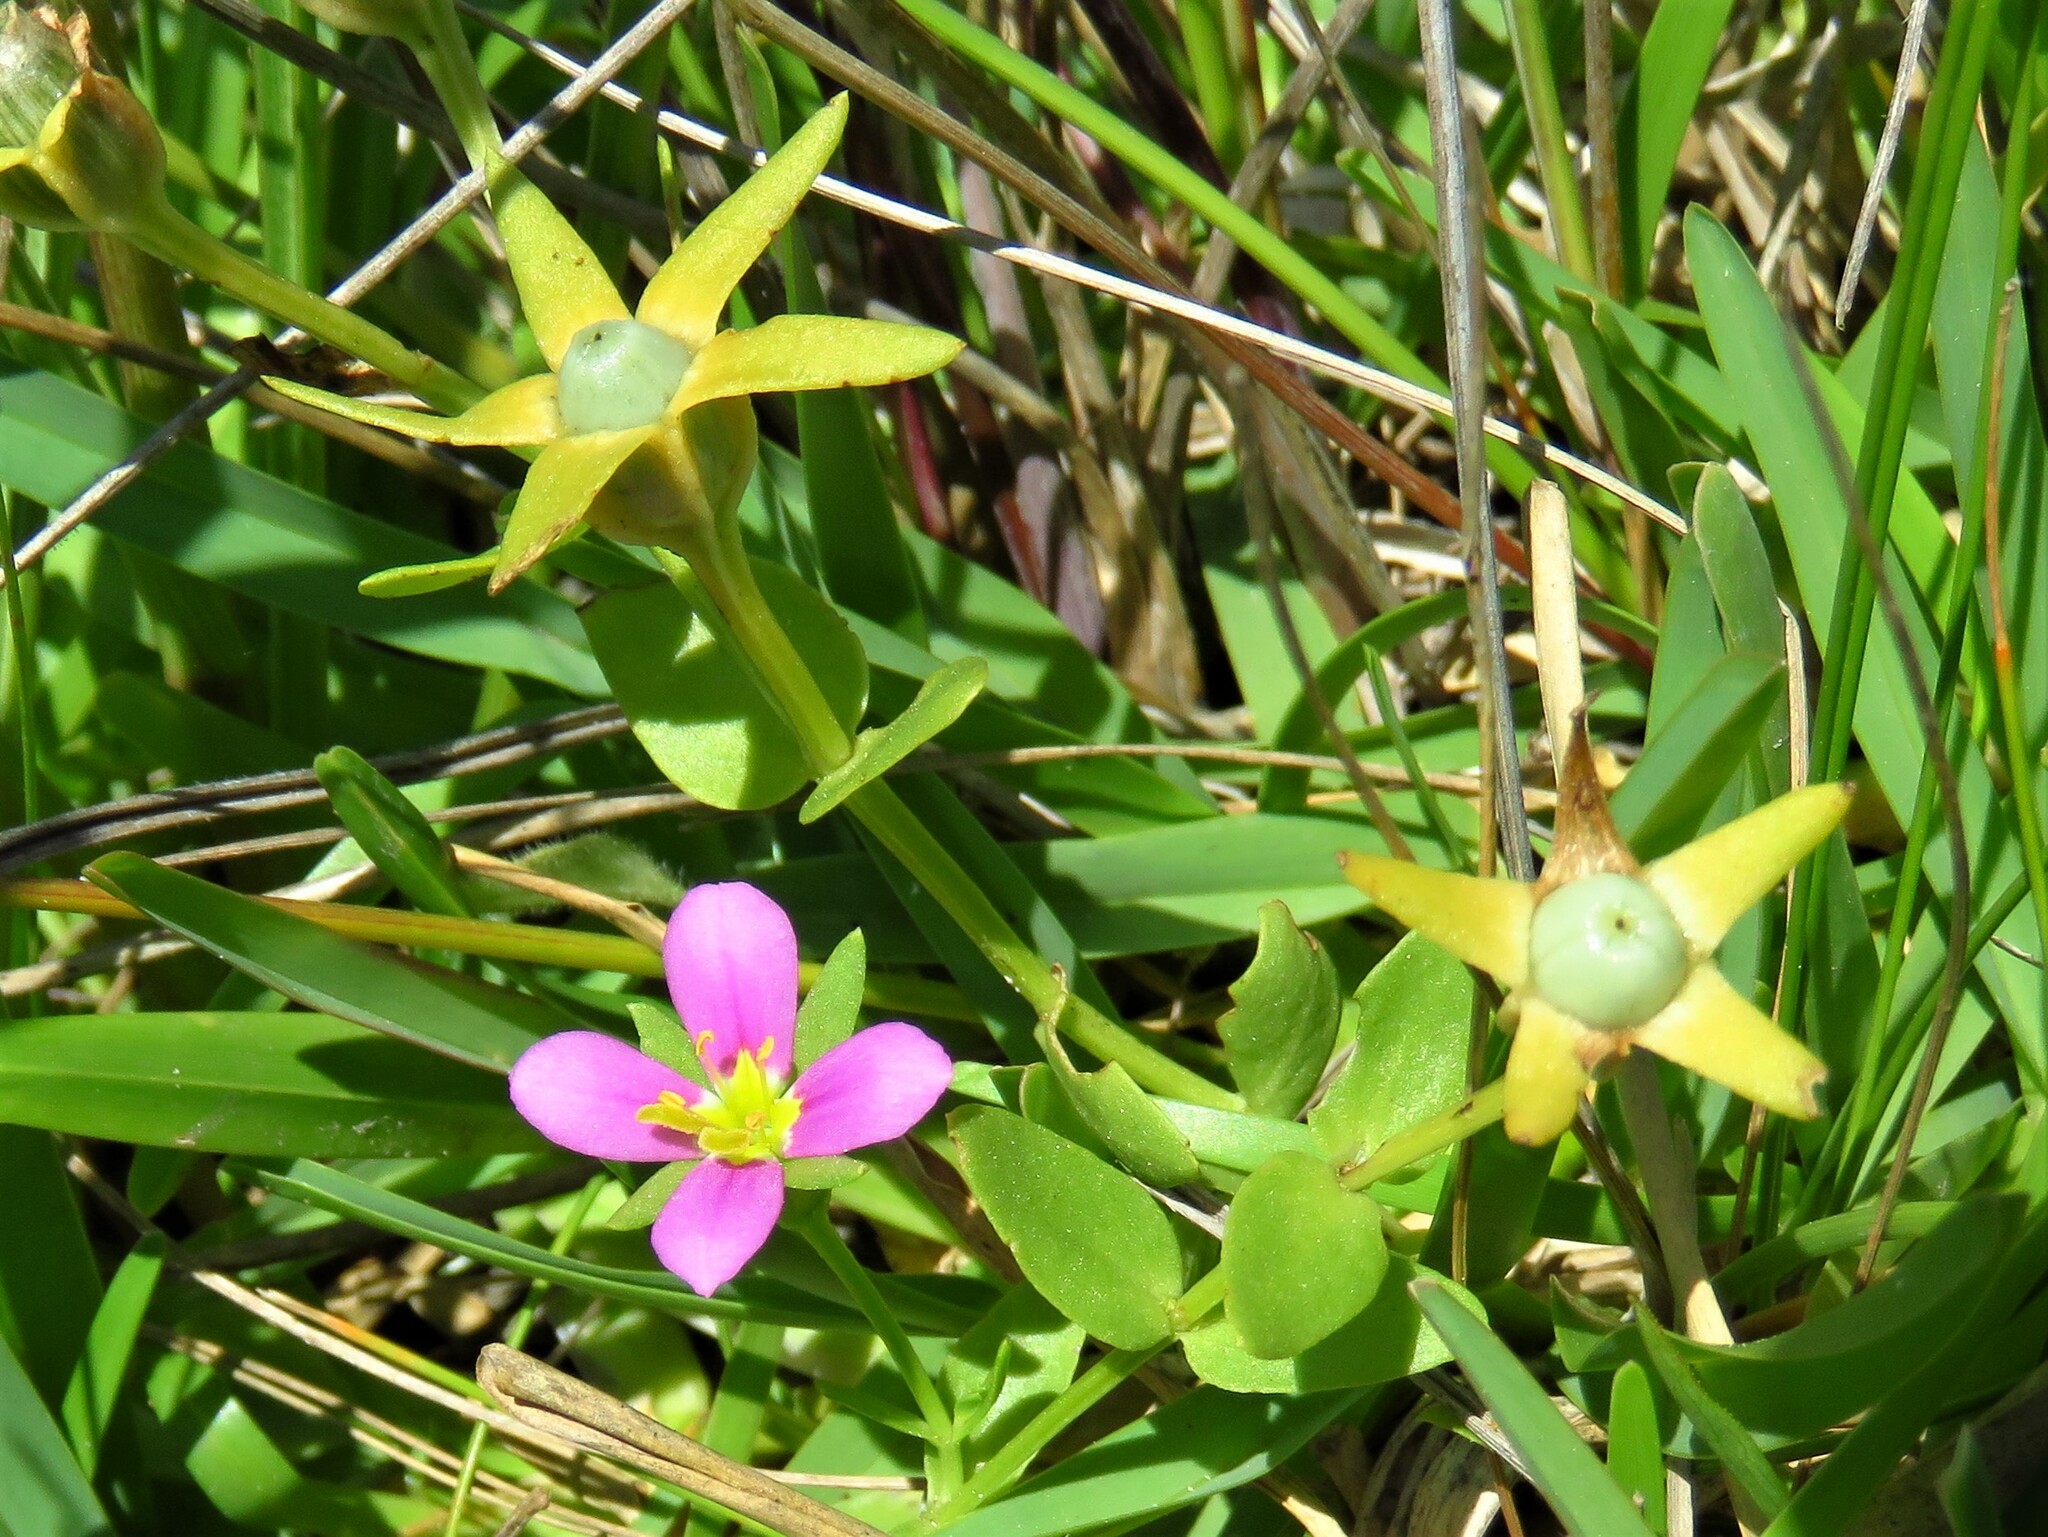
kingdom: Plantae
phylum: Tracheophyta
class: Magnoliopsida
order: Gentianales
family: Gentianaceae
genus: Sabatia
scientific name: Sabatia campestris
